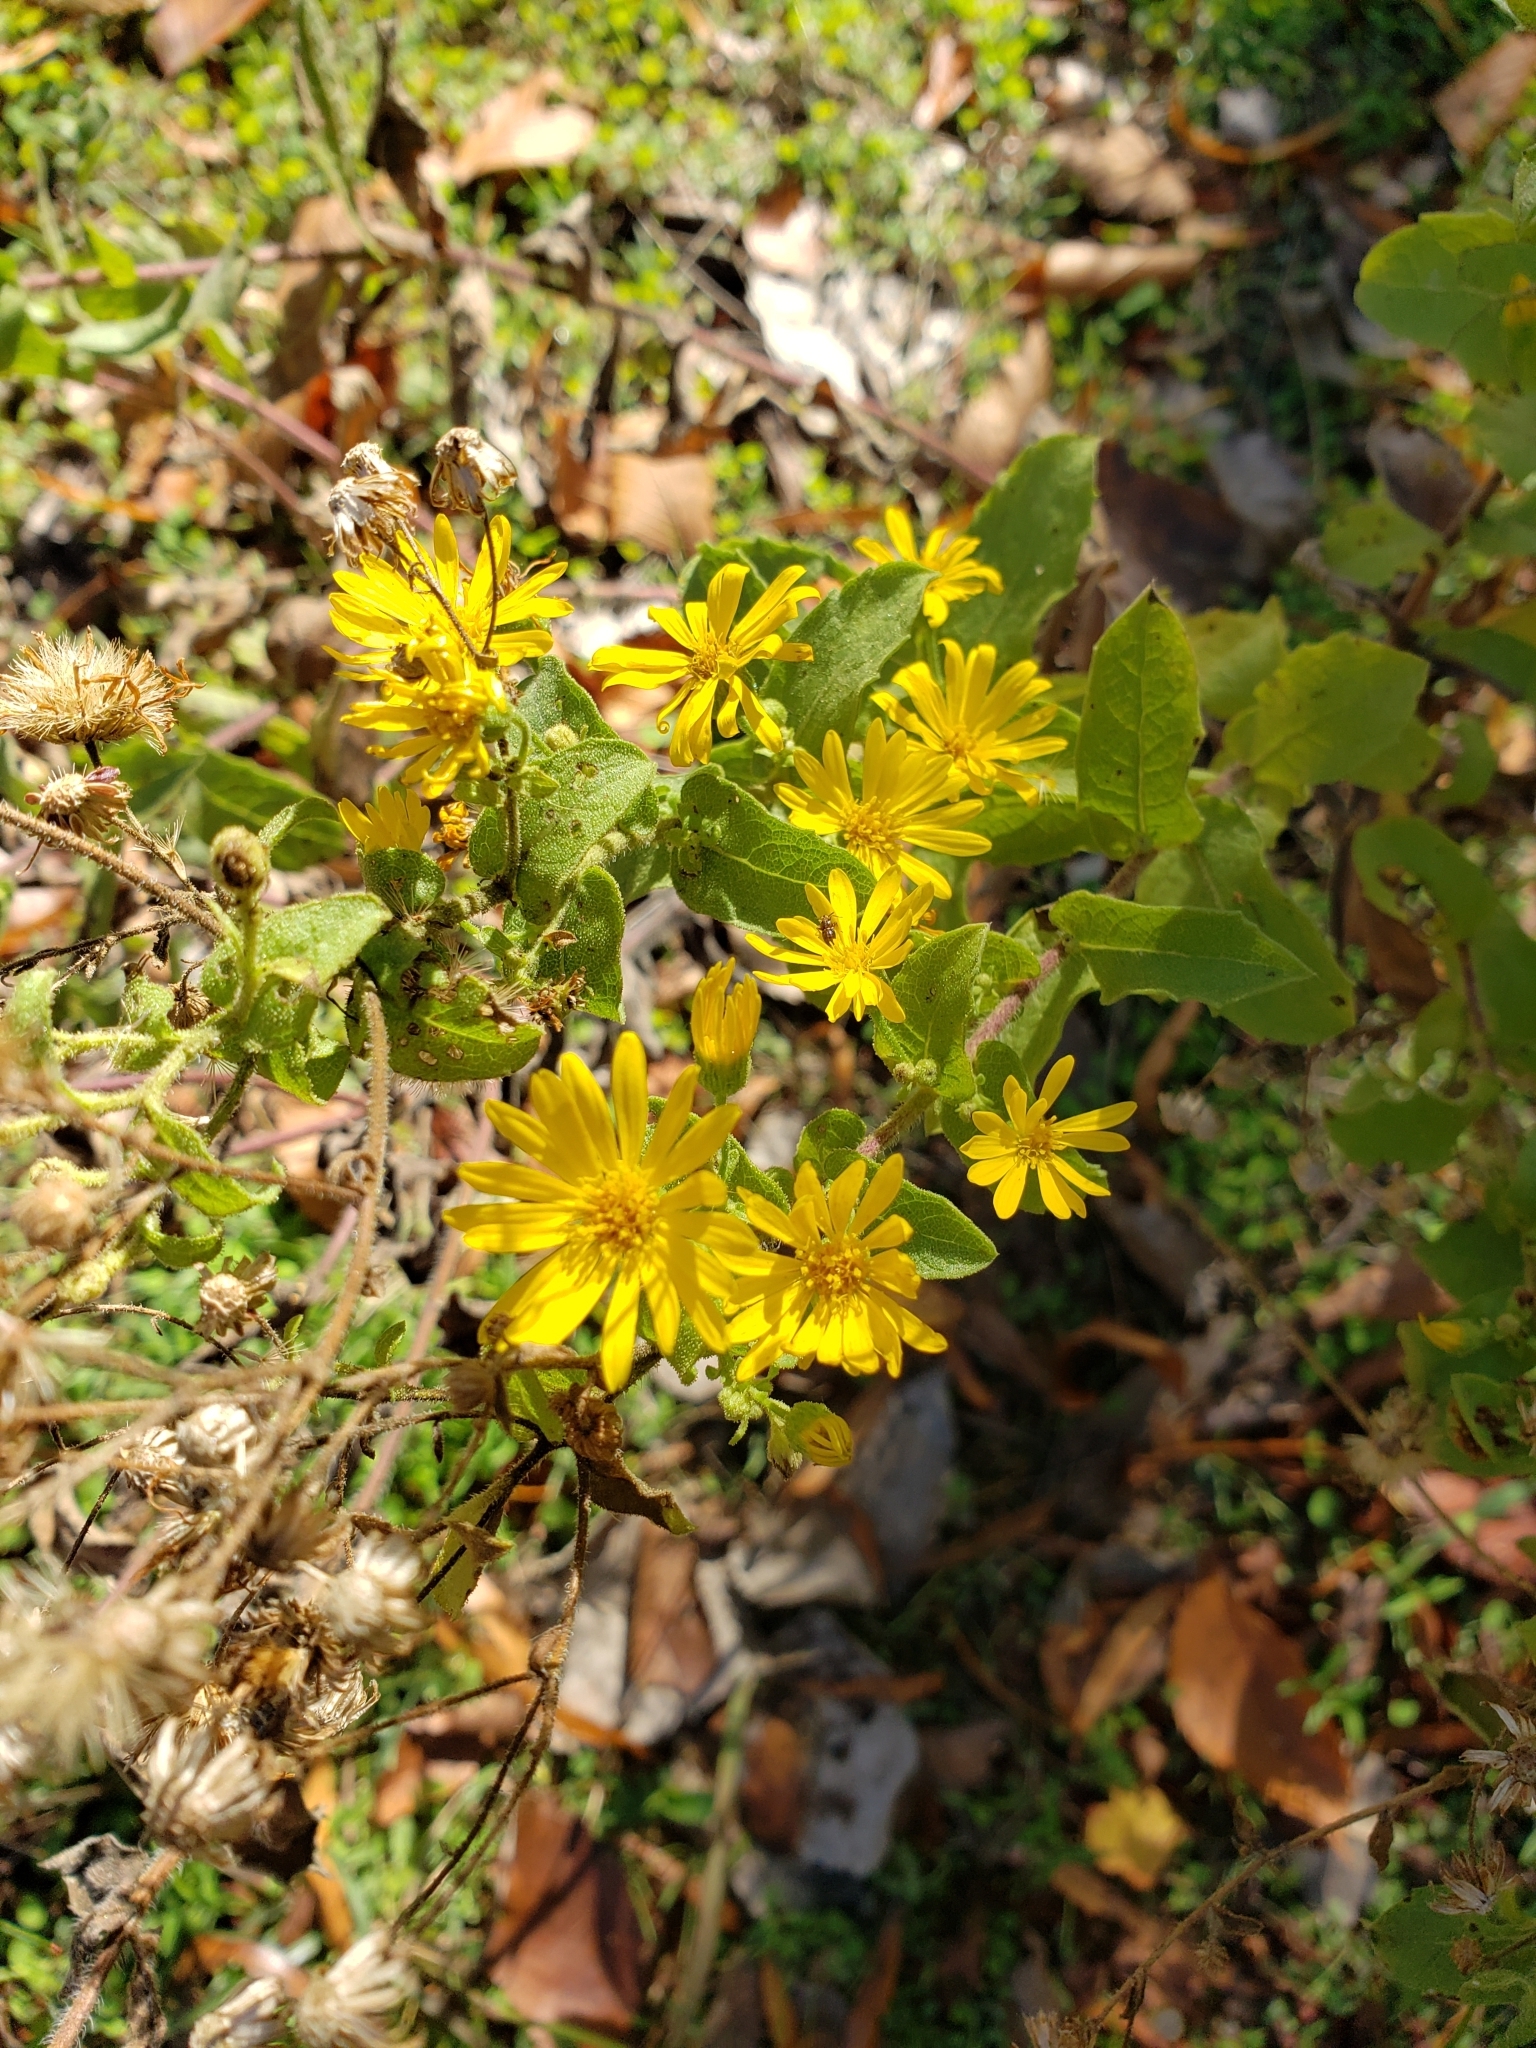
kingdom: Plantae
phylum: Tracheophyta
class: Magnoliopsida
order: Asterales
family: Asteraceae
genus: Heterotheca
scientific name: Heterotheca subaxillaris
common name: Camphorweed
